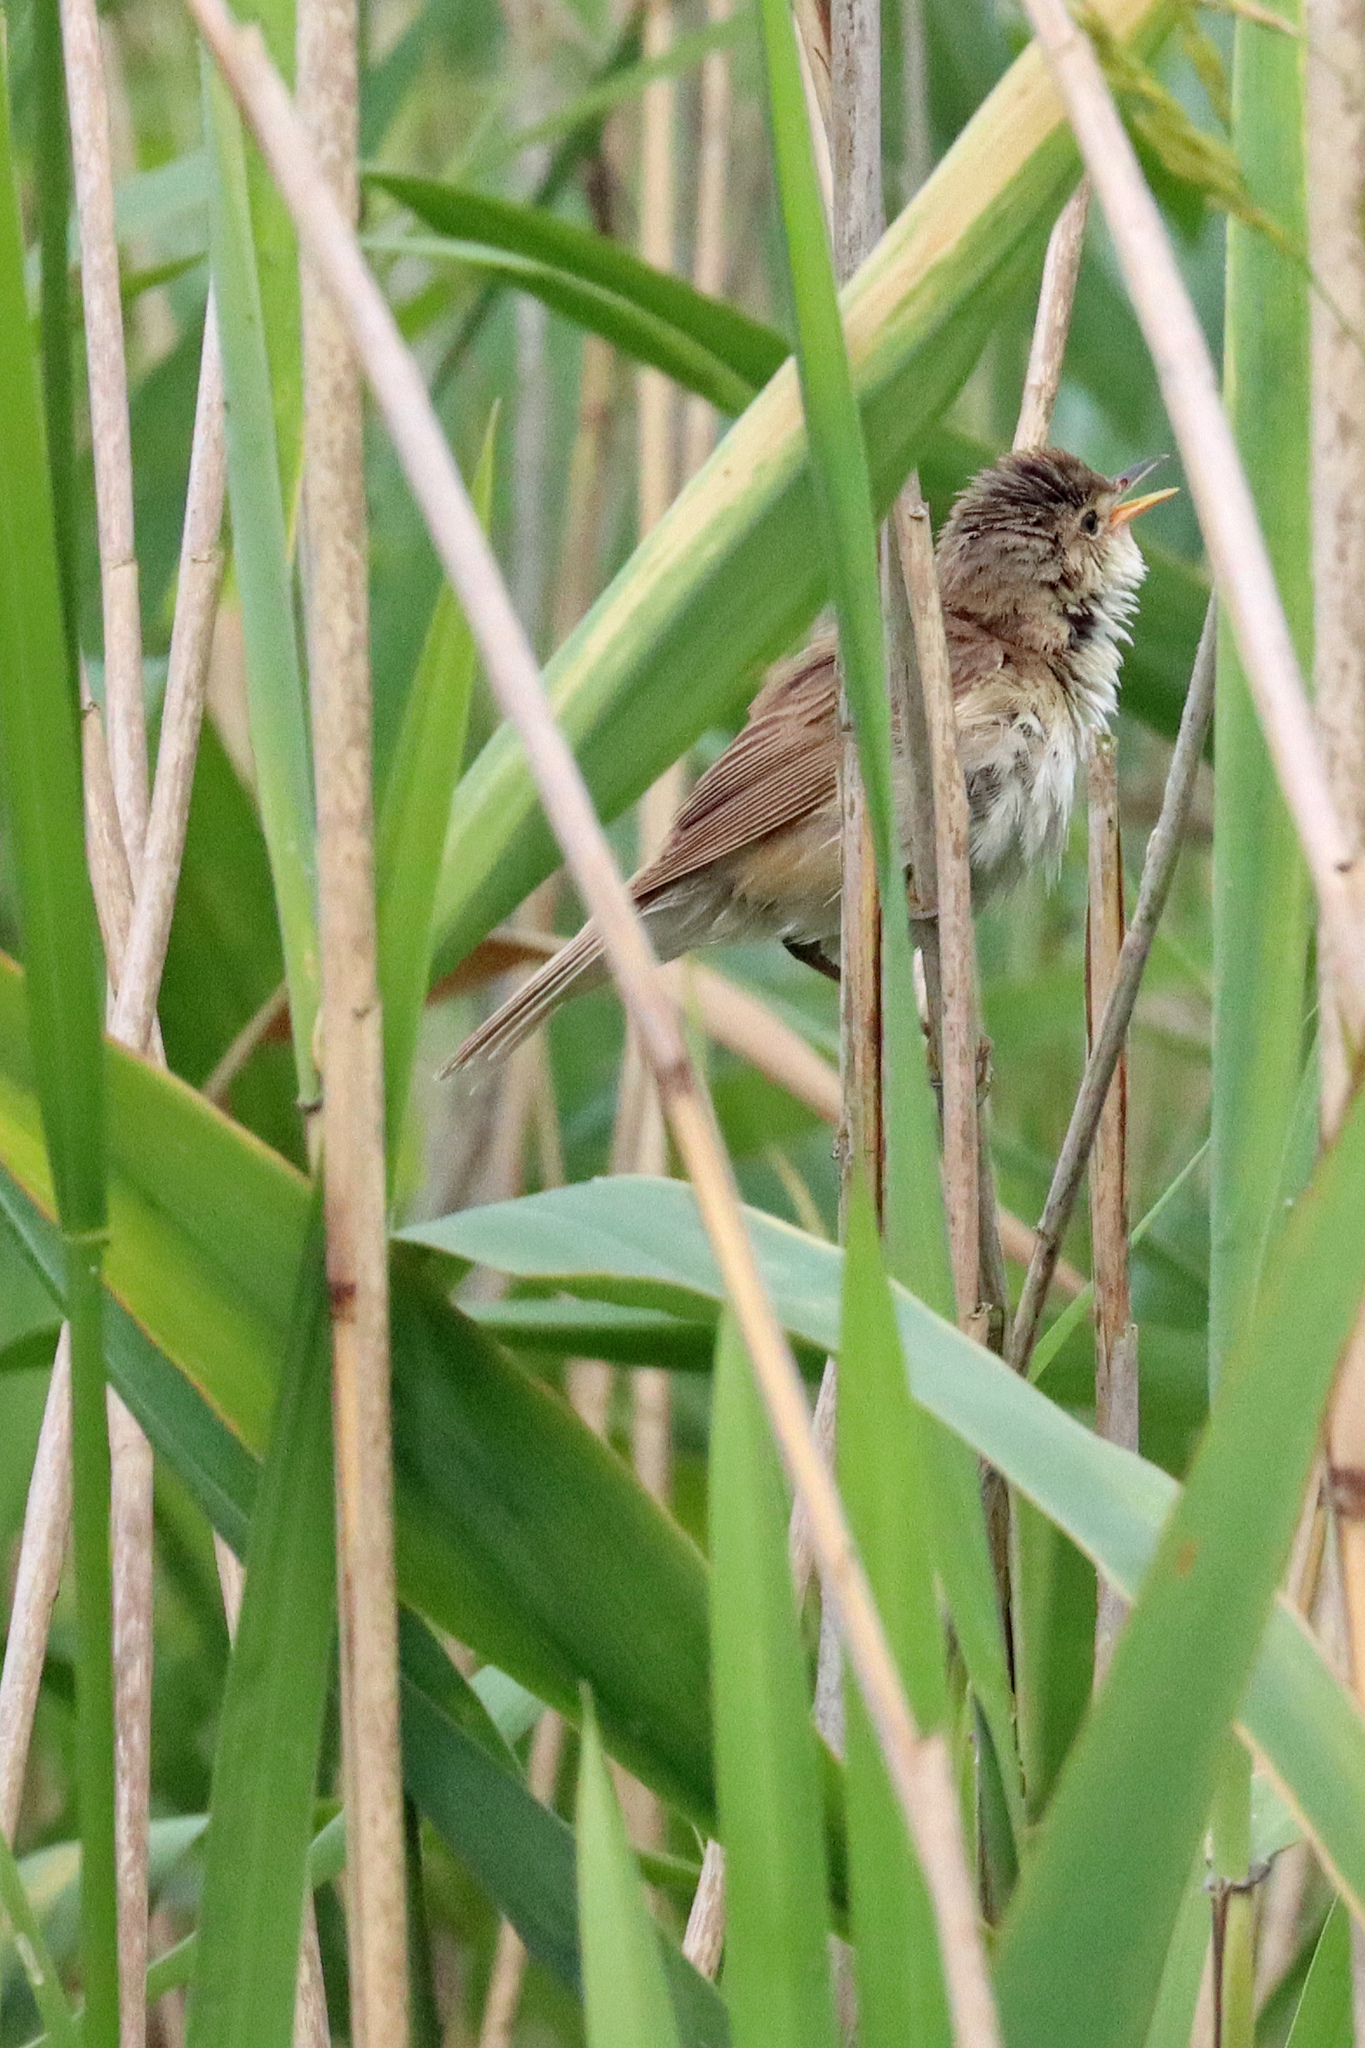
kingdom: Animalia
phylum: Chordata
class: Aves
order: Passeriformes
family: Acrocephalidae
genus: Acrocephalus
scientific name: Acrocephalus scirpaceus
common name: Eurasian reed warbler
